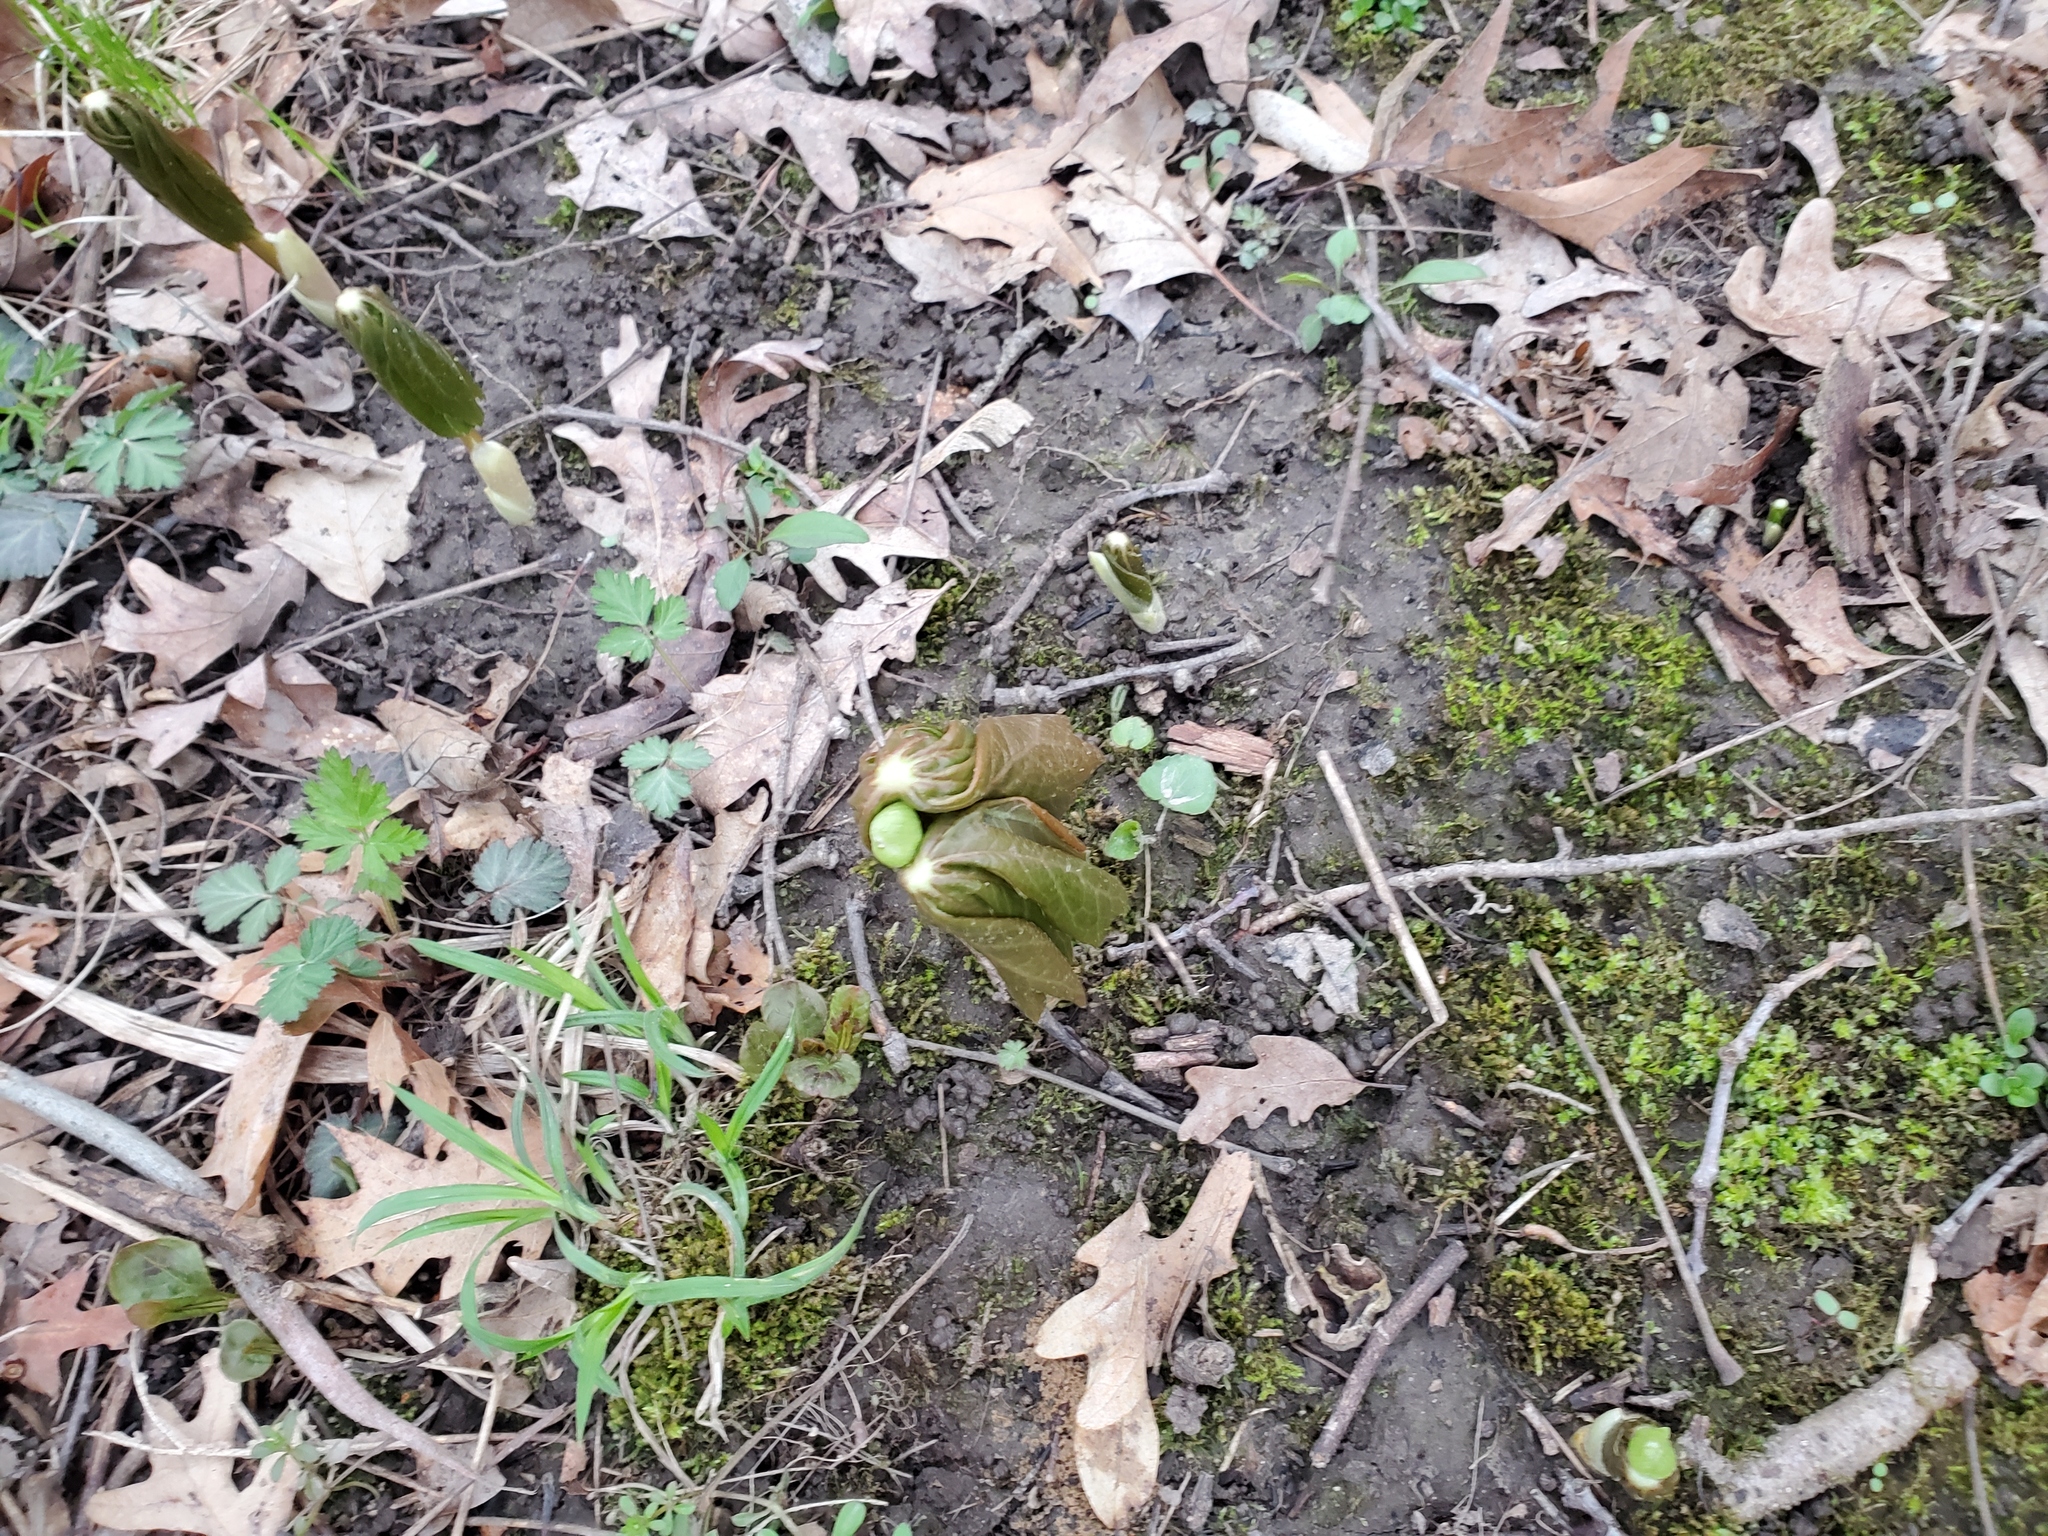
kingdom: Plantae
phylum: Tracheophyta
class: Magnoliopsida
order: Ranunculales
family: Berberidaceae
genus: Podophyllum
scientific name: Podophyllum peltatum
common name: Wild mandrake
